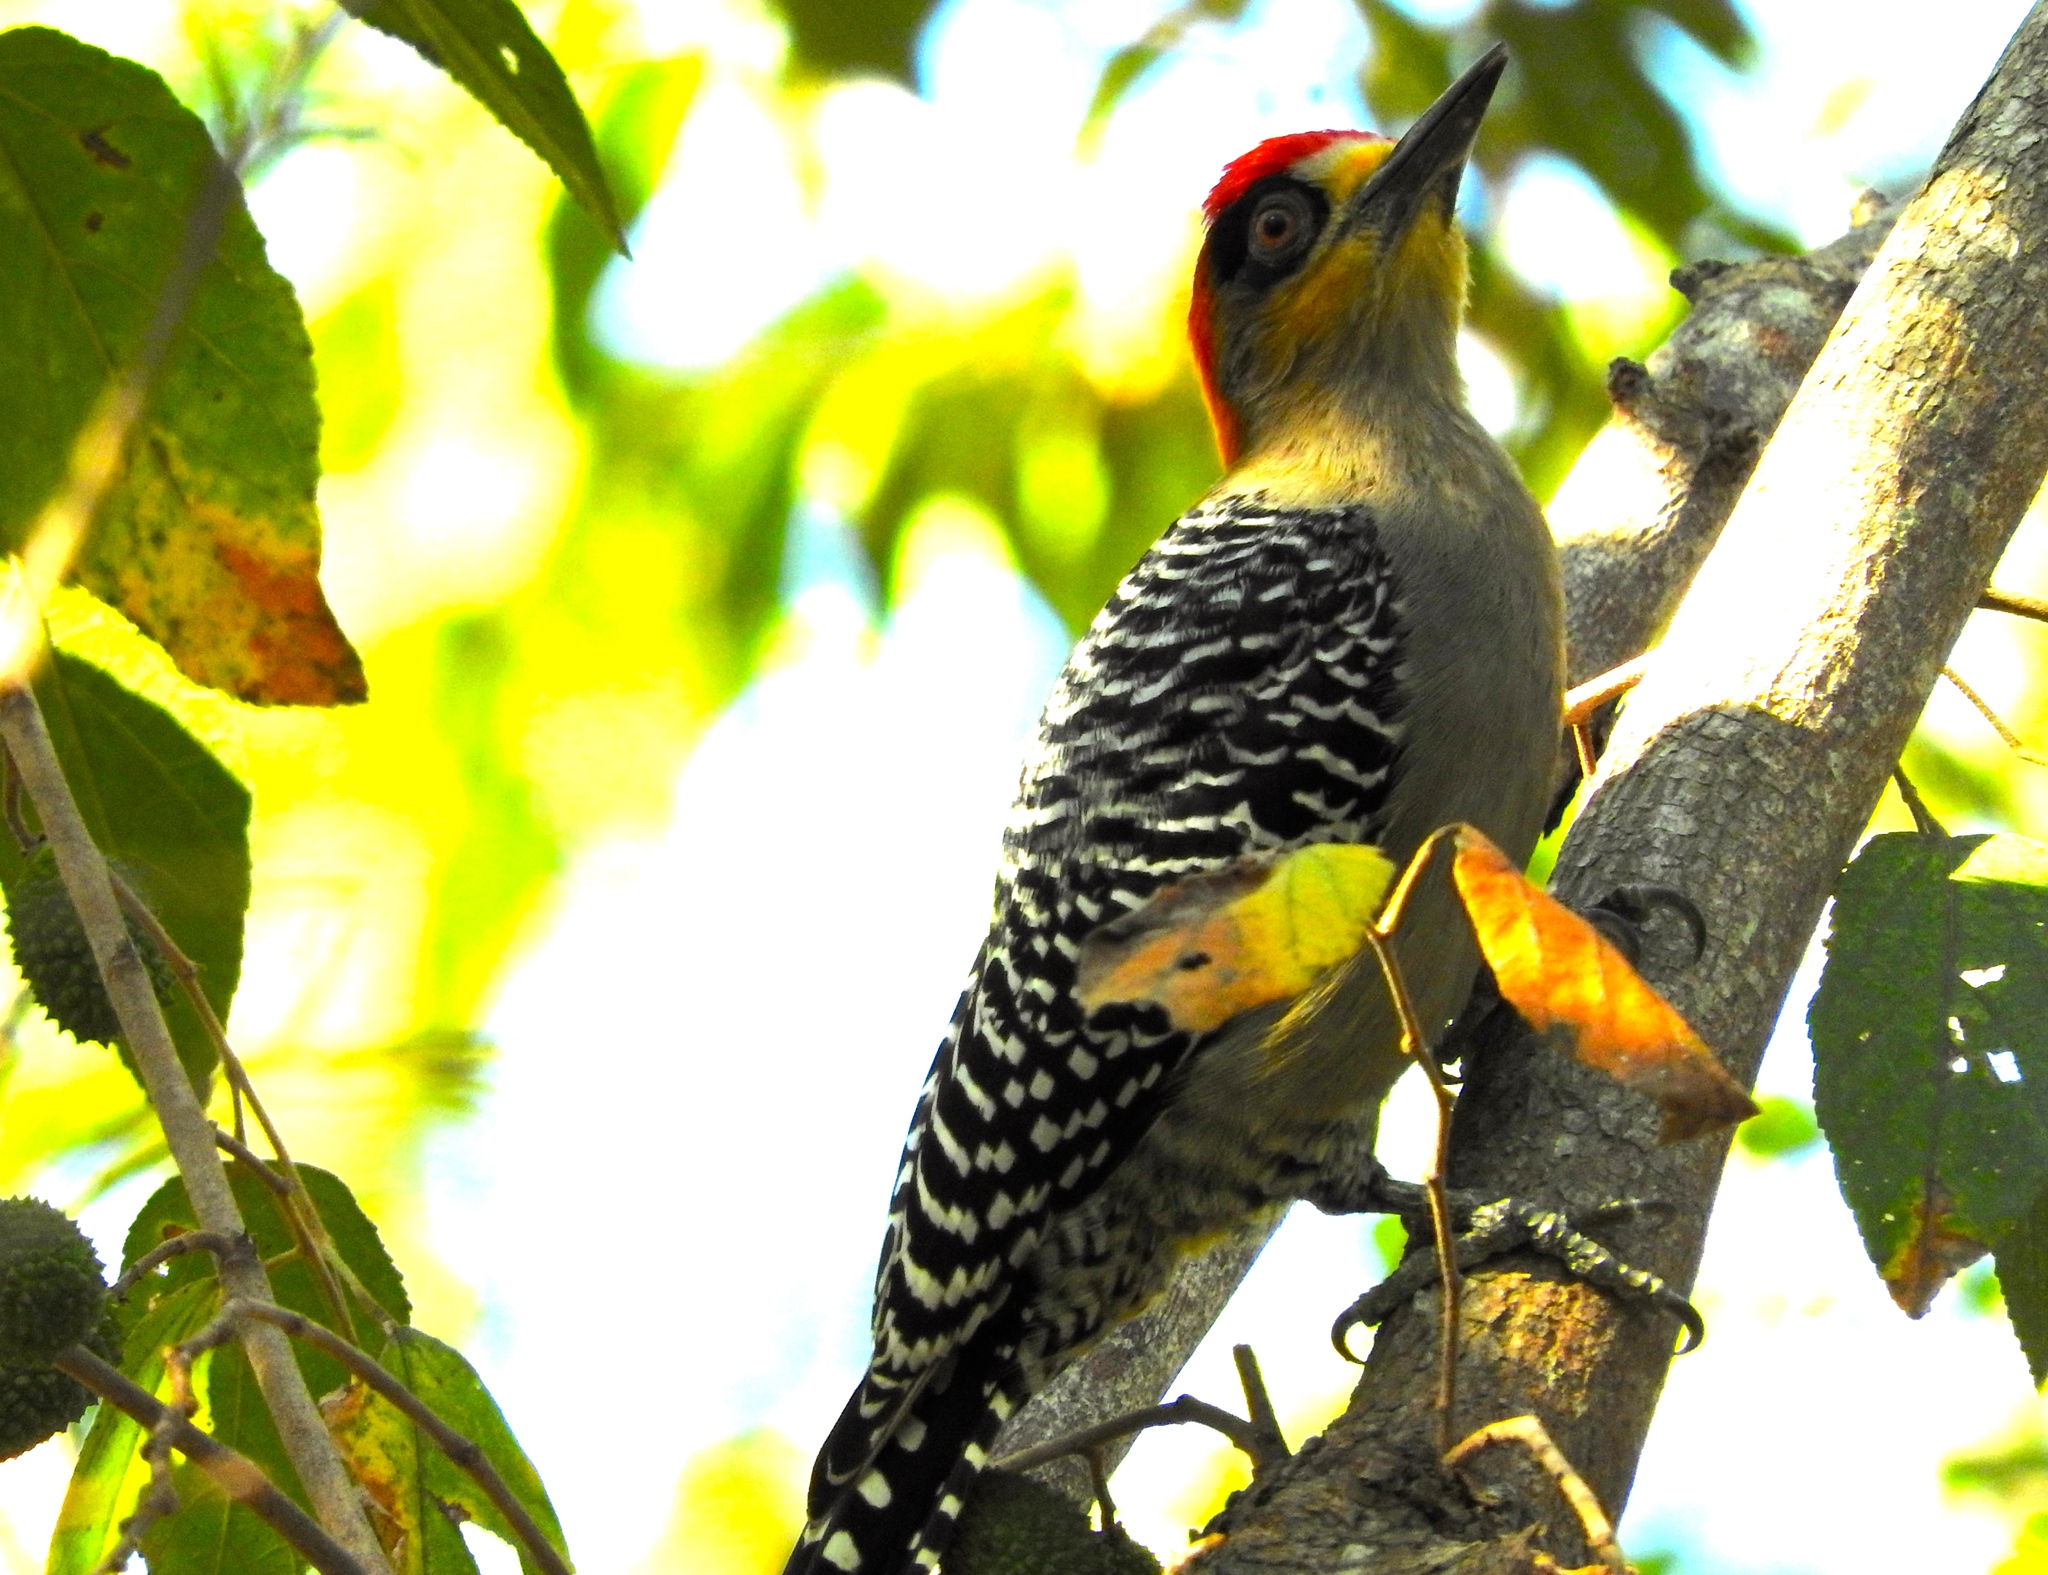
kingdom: Animalia
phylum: Chordata
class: Aves
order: Piciformes
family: Picidae
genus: Melanerpes
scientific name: Melanerpes chrysogenys
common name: Golden-cheeked woodpecker
